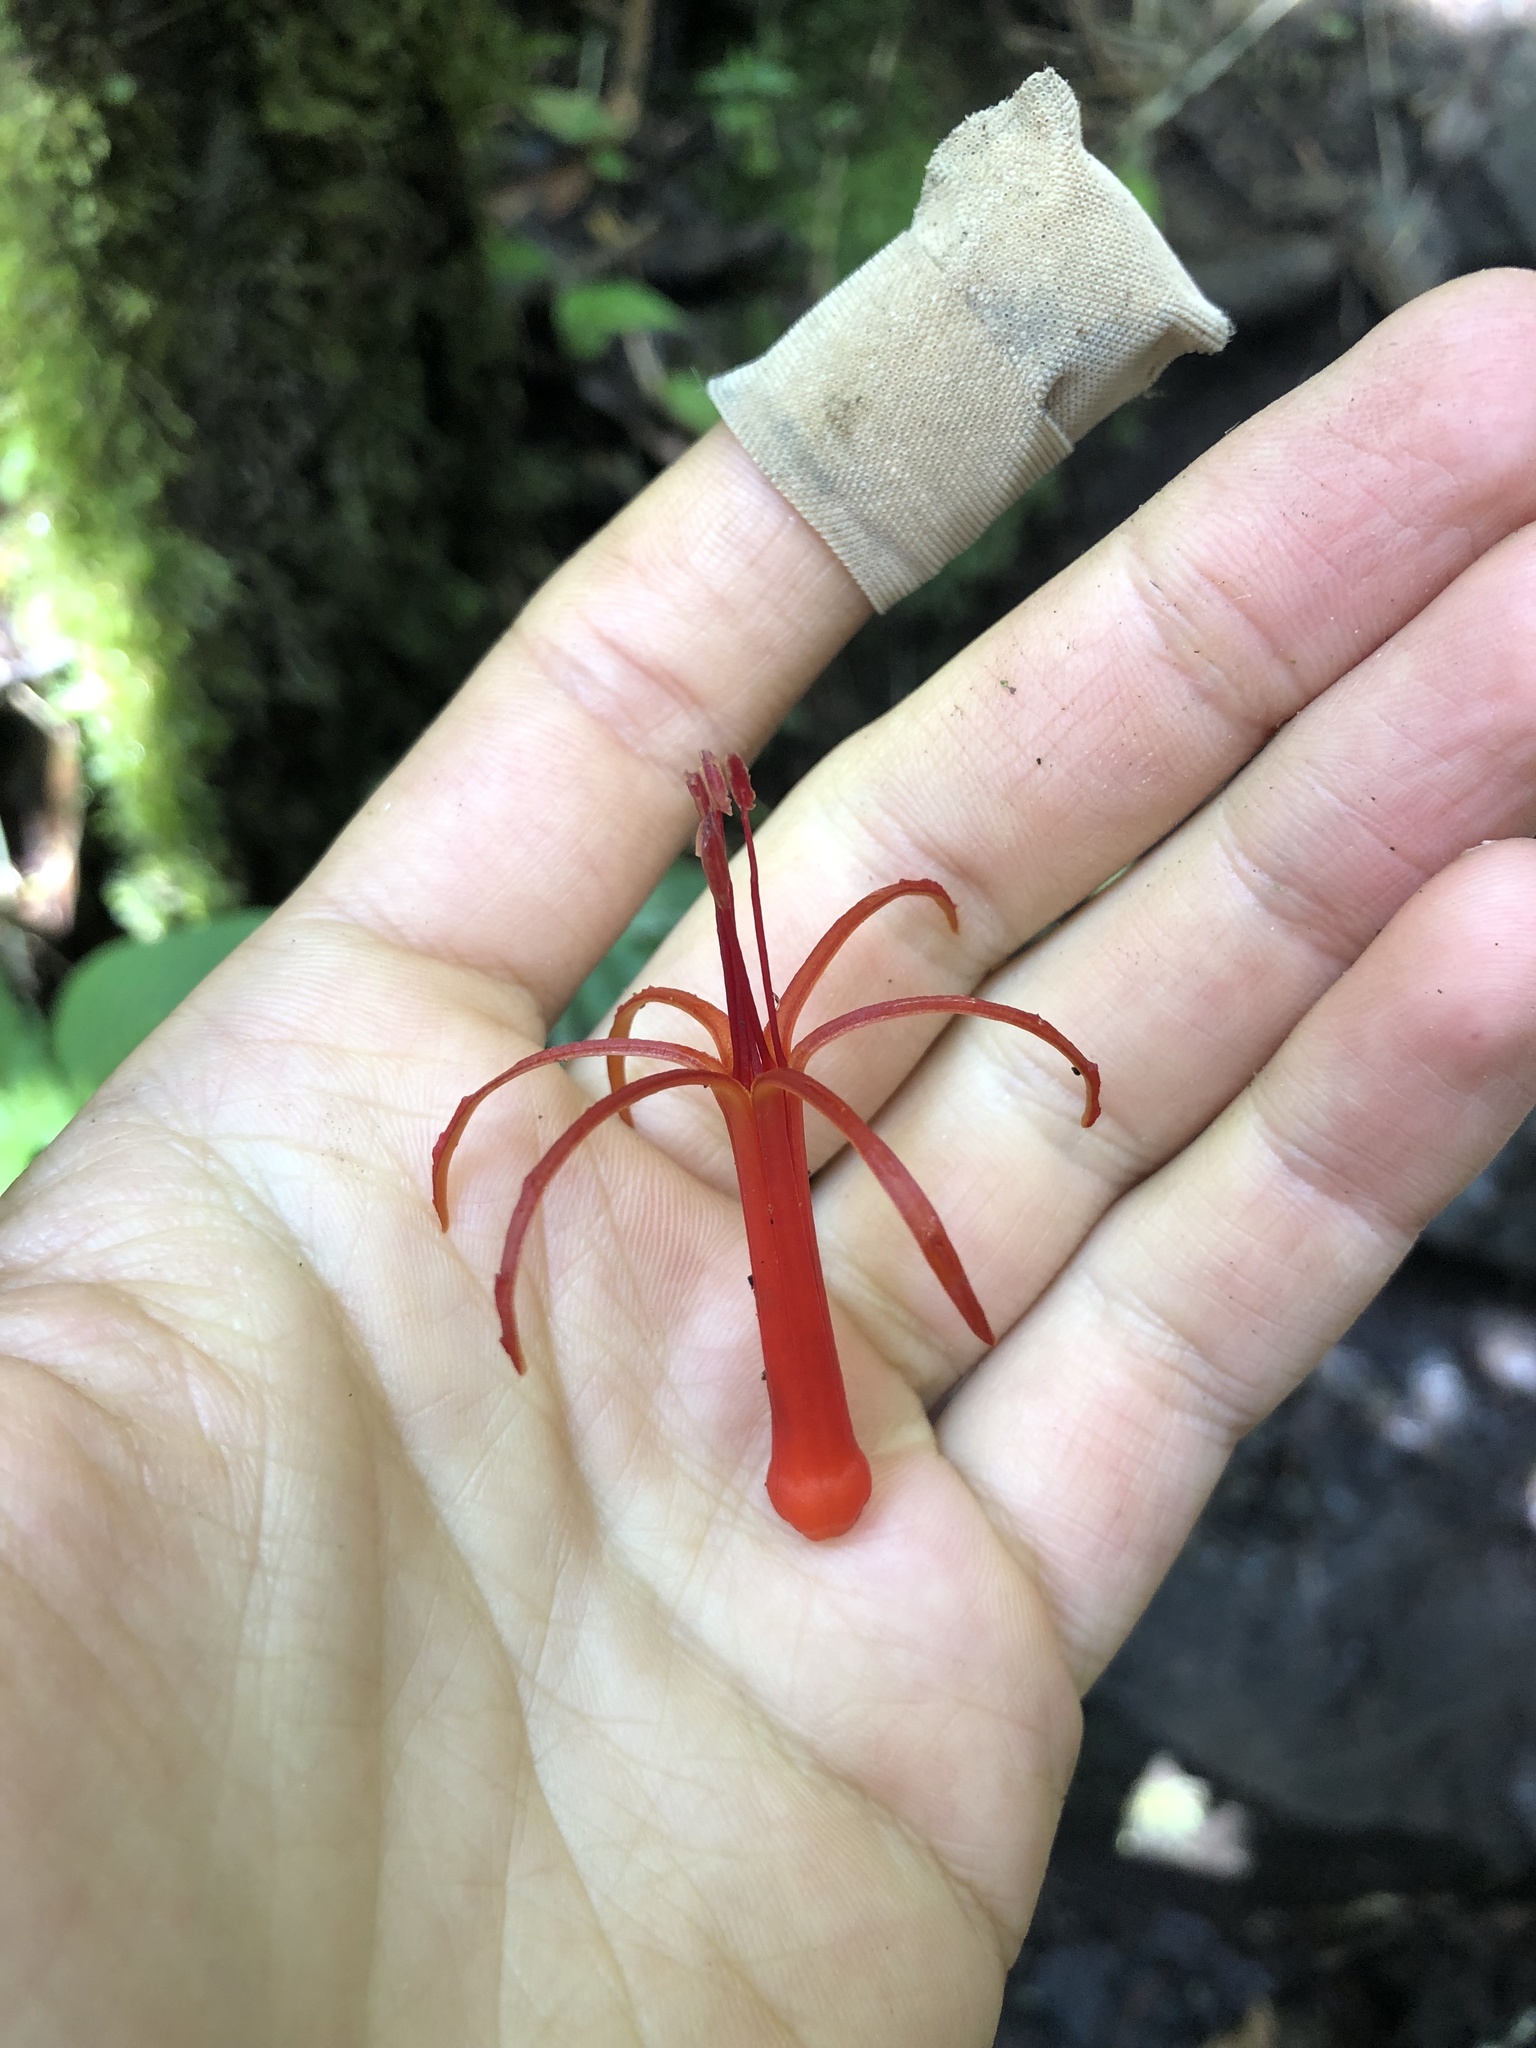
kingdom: Plantae
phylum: Tracheophyta
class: Magnoliopsida
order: Santalales
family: Loranthaceae
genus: Aetanthus
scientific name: Aetanthus colombianus
